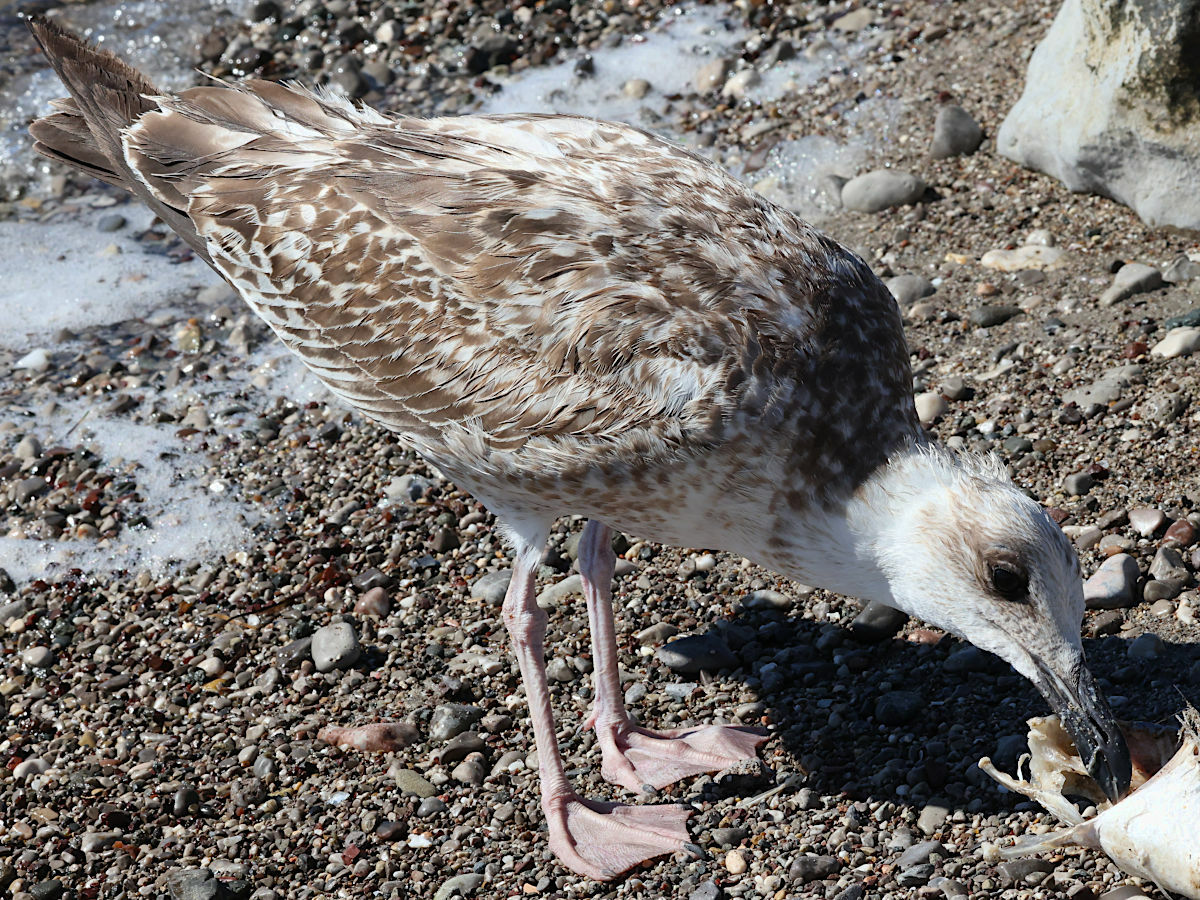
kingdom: Animalia
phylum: Chordata
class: Aves
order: Charadriiformes
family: Laridae
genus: Larus
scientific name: Larus michahellis
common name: Yellow-legged gull
